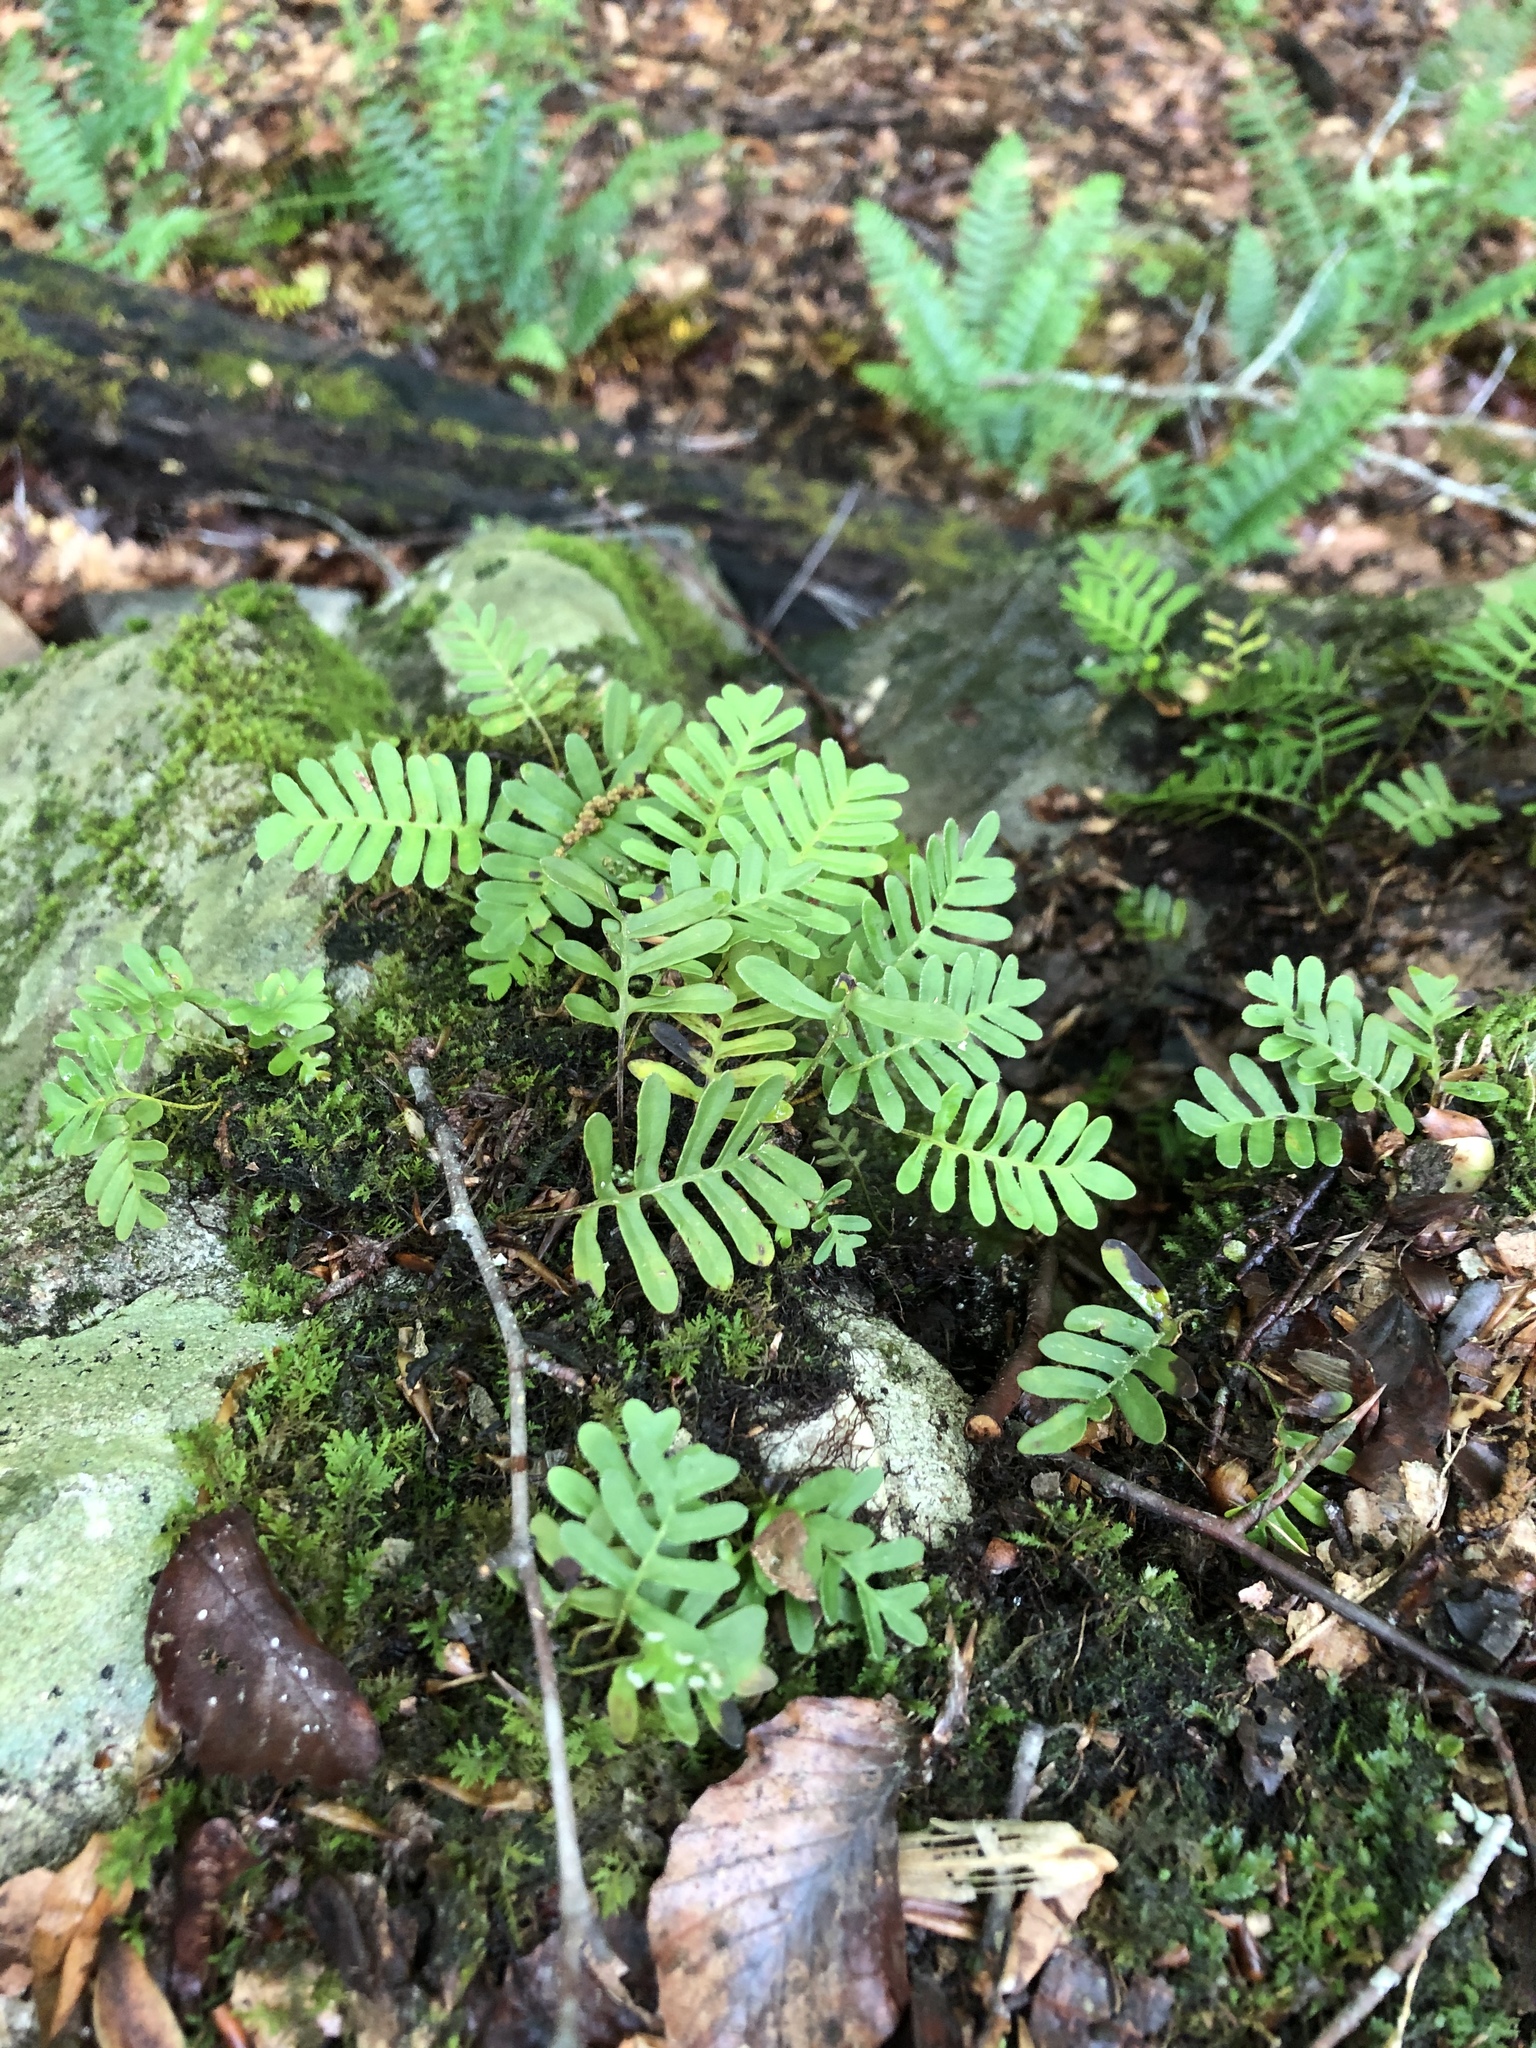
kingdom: Plantae
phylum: Tracheophyta
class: Polypodiopsida
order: Polypodiales
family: Polypodiaceae
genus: Pleopeltis
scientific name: Pleopeltis michauxiana
